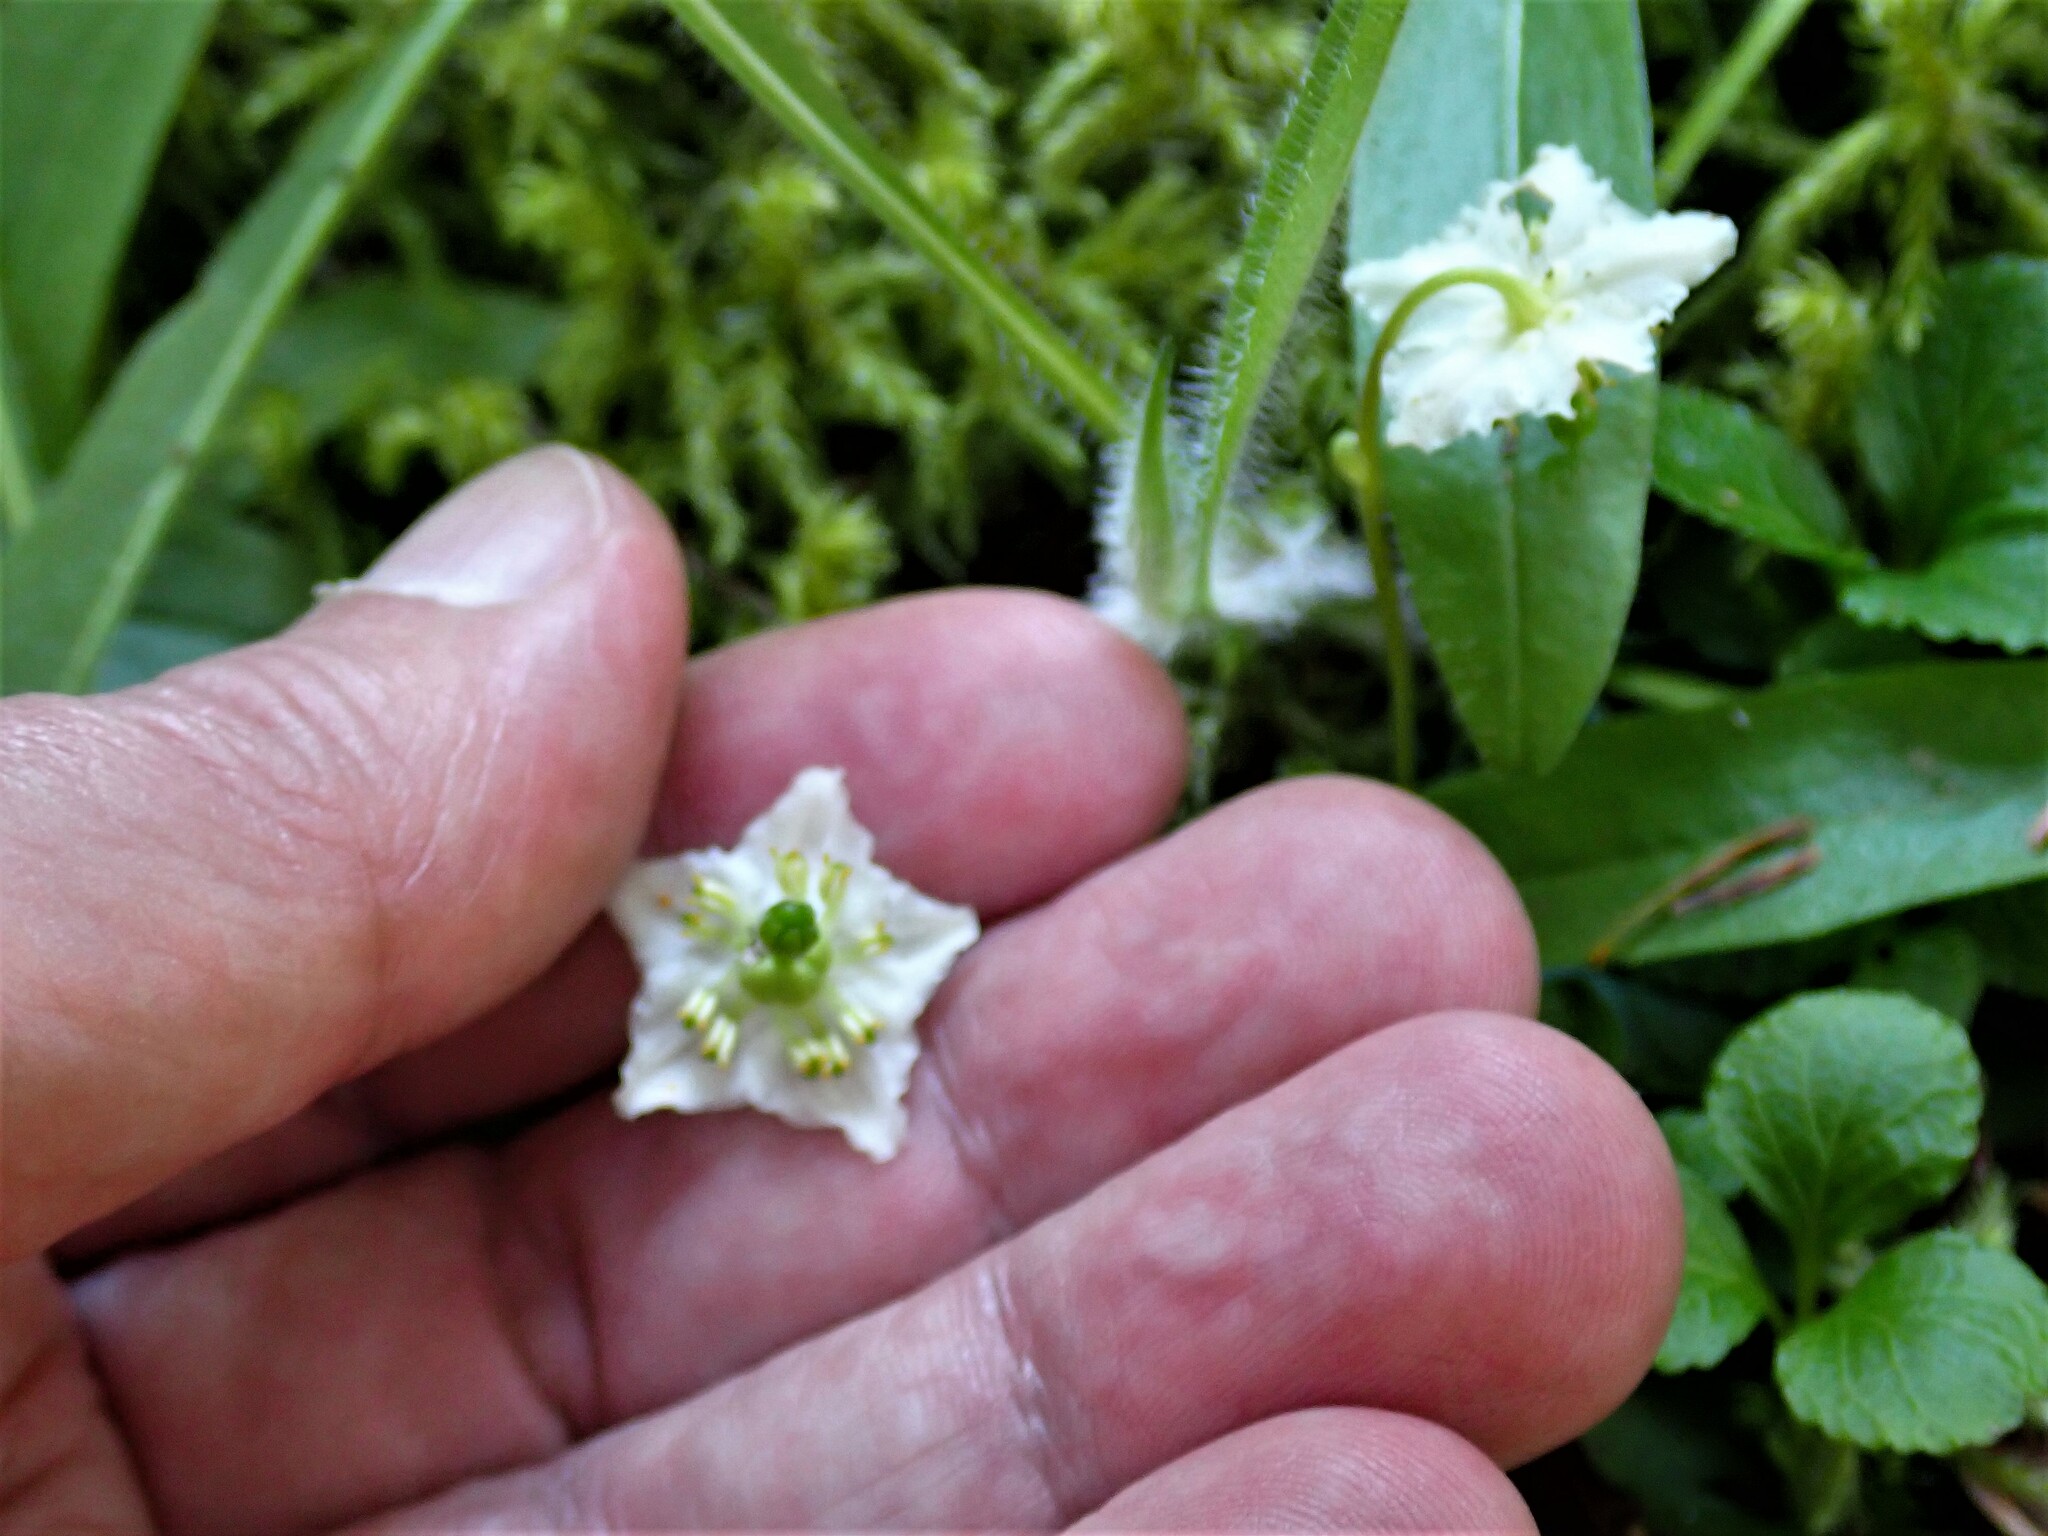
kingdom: Plantae
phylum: Tracheophyta
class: Magnoliopsida
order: Ericales
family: Ericaceae
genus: Moneses
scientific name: Moneses uniflora
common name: One-flowered wintergreen
